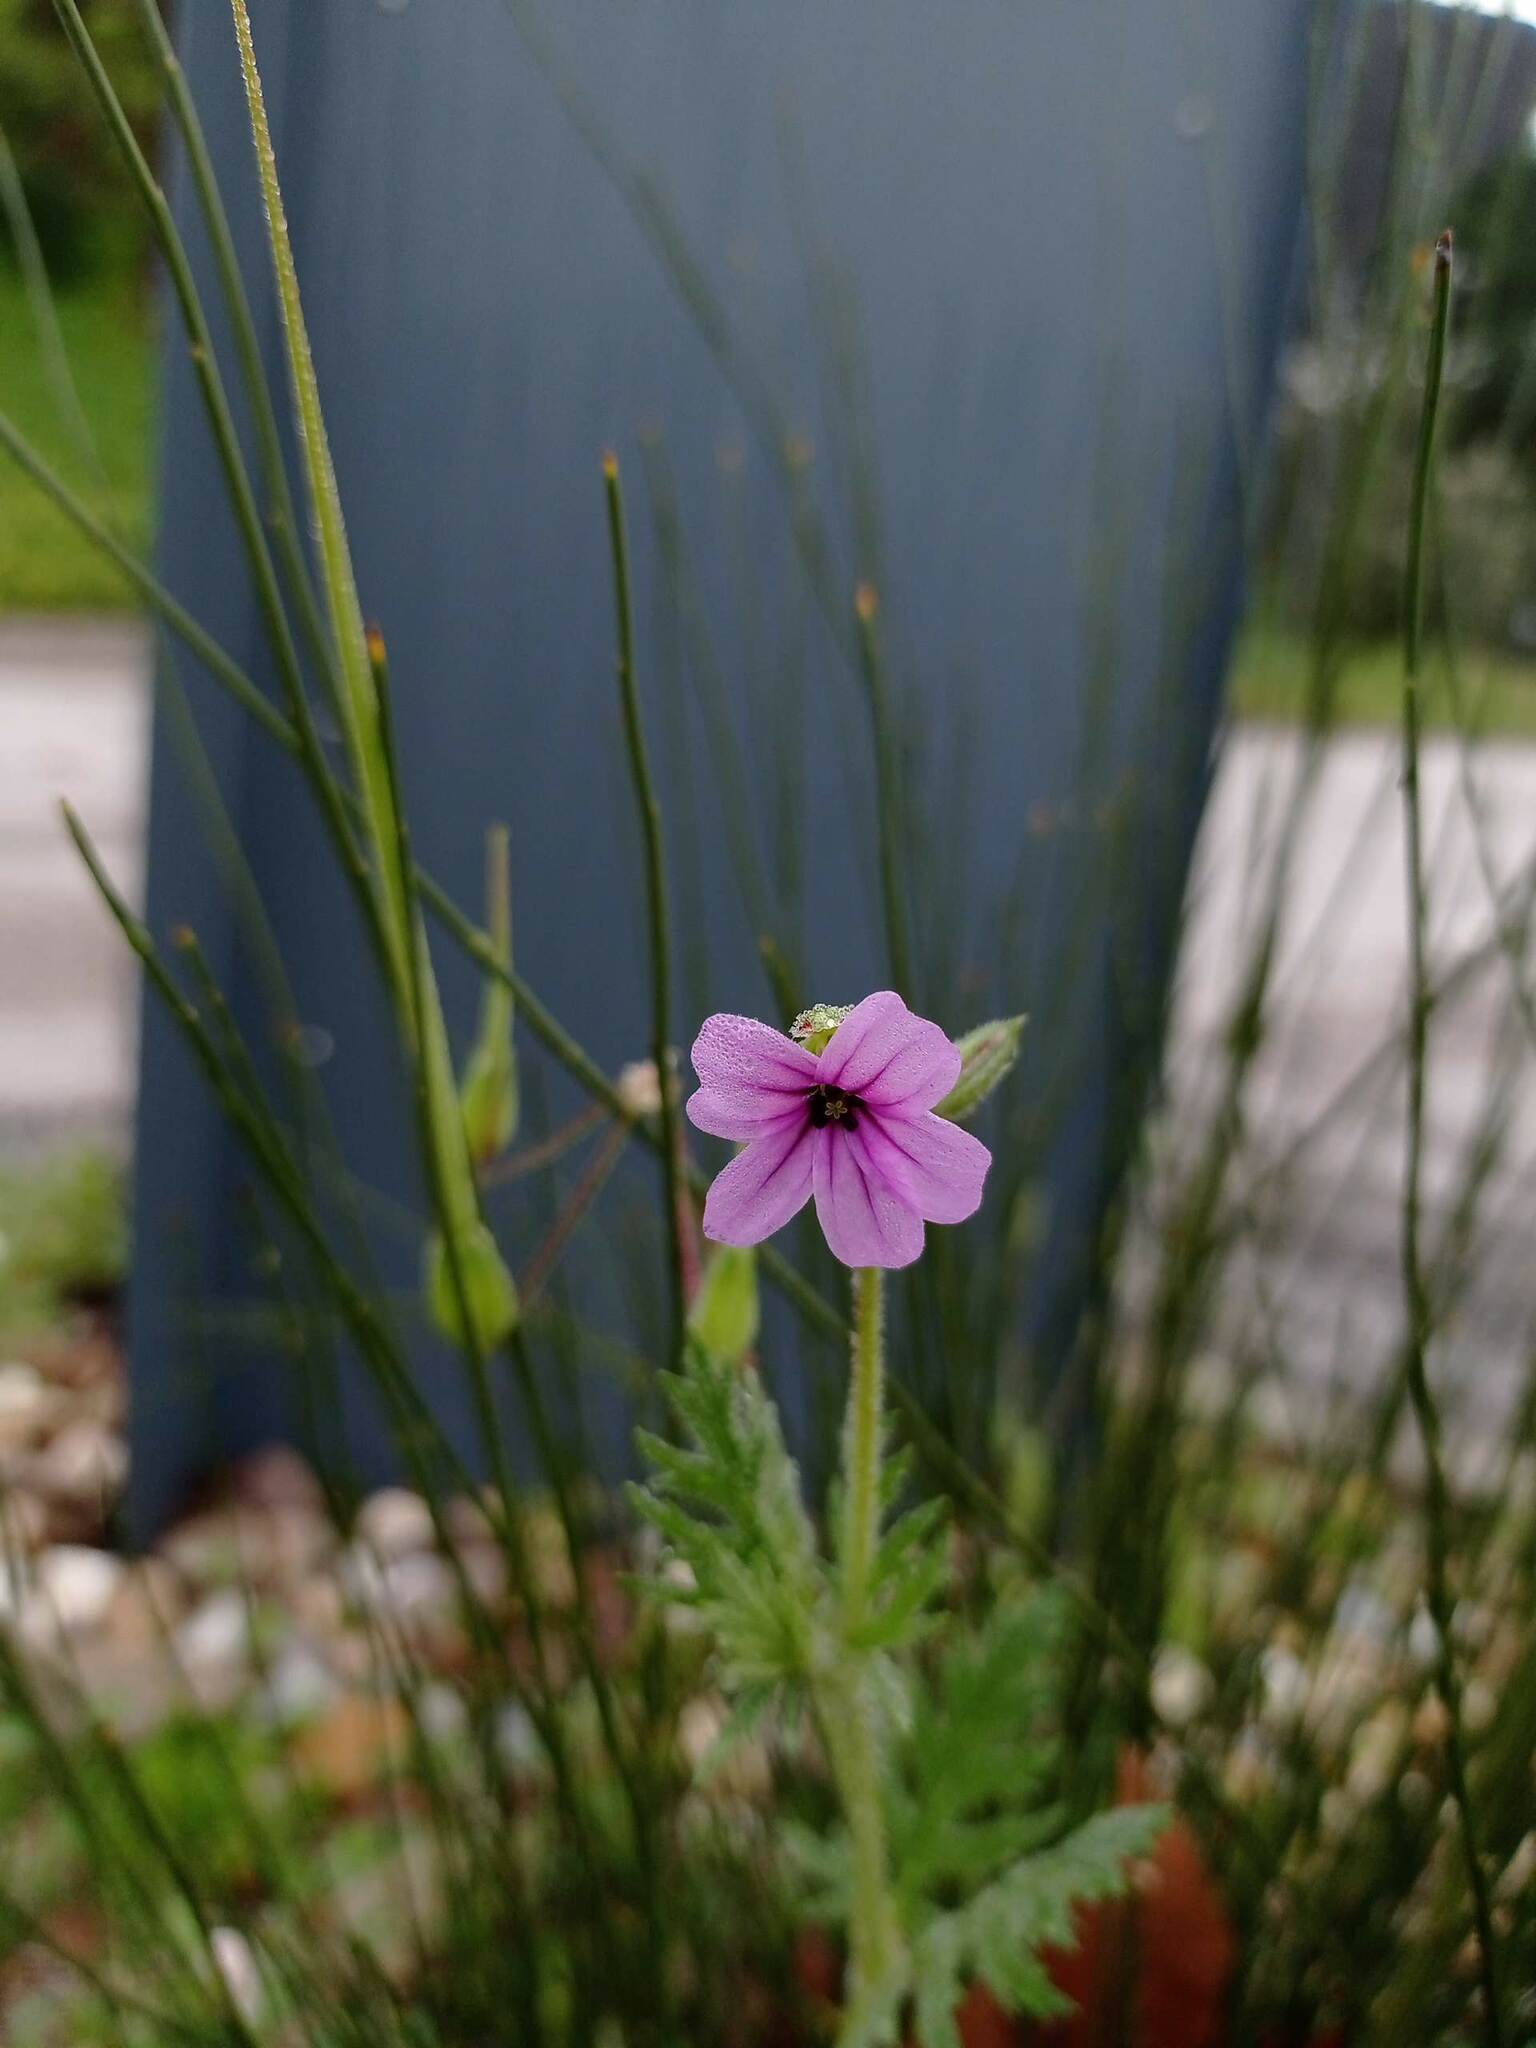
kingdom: Plantae
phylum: Tracheophyta
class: Magnoliopsida
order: Geraniales
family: Geraniaceae
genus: Erodium
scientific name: Erodium botrys
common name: Mediterranean stork's-bill
